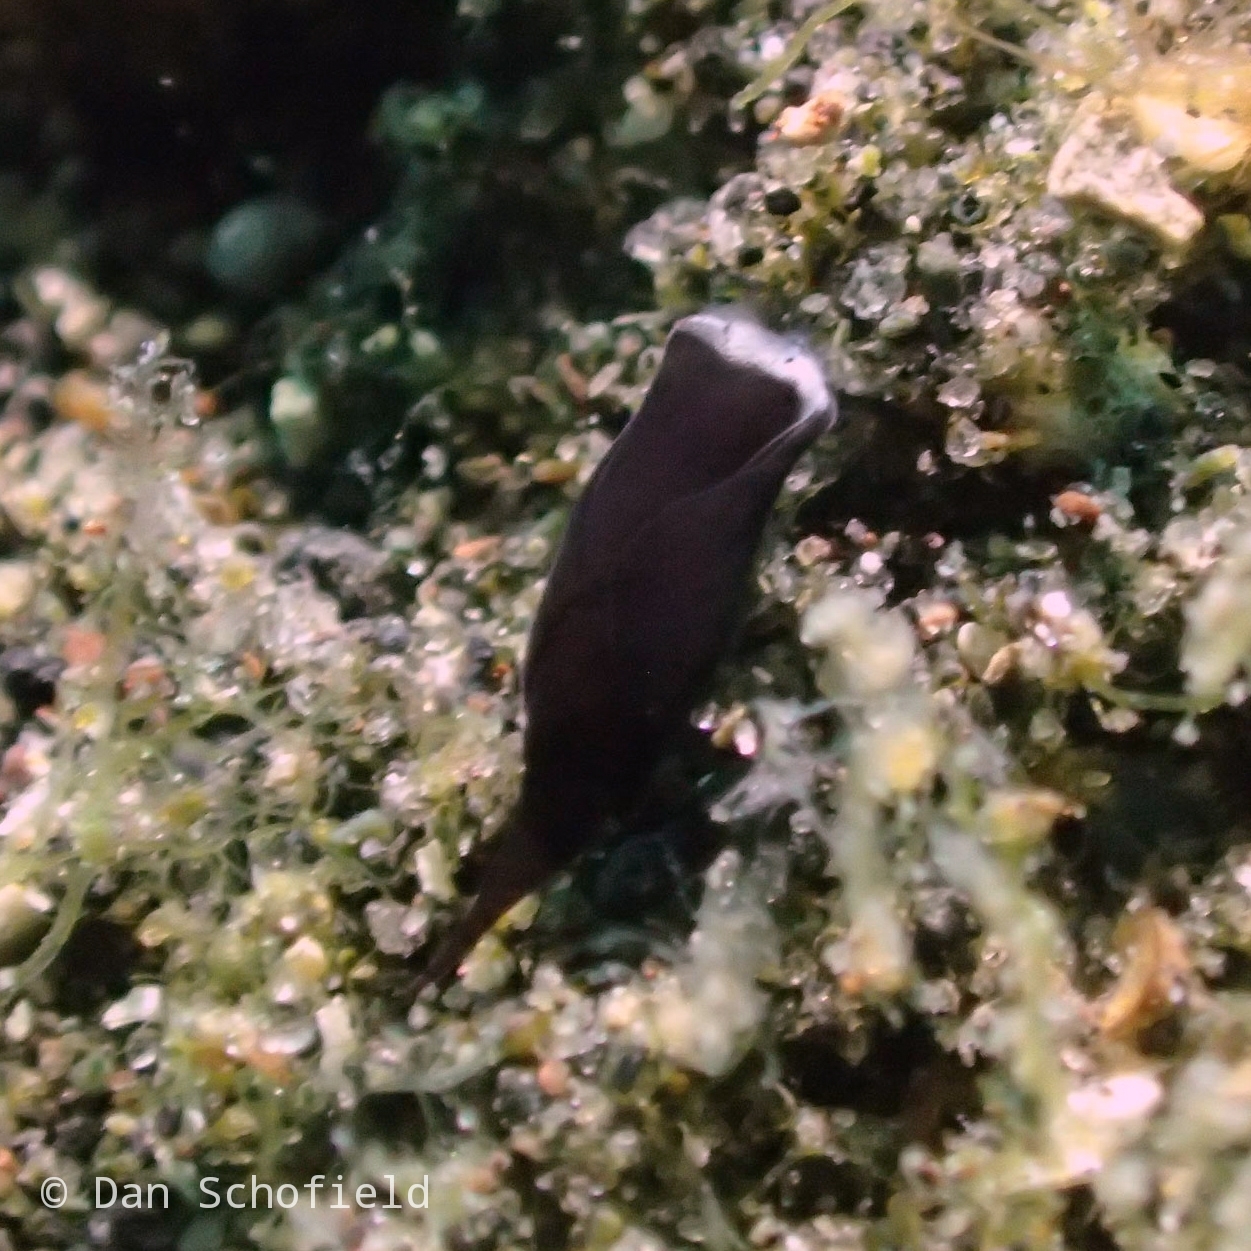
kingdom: Animalia
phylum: Mollusca
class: Gastropoda
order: Cephalaspidea
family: Aglajidae
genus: Mariaglaja
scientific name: Mariaglaja tsurugensis
